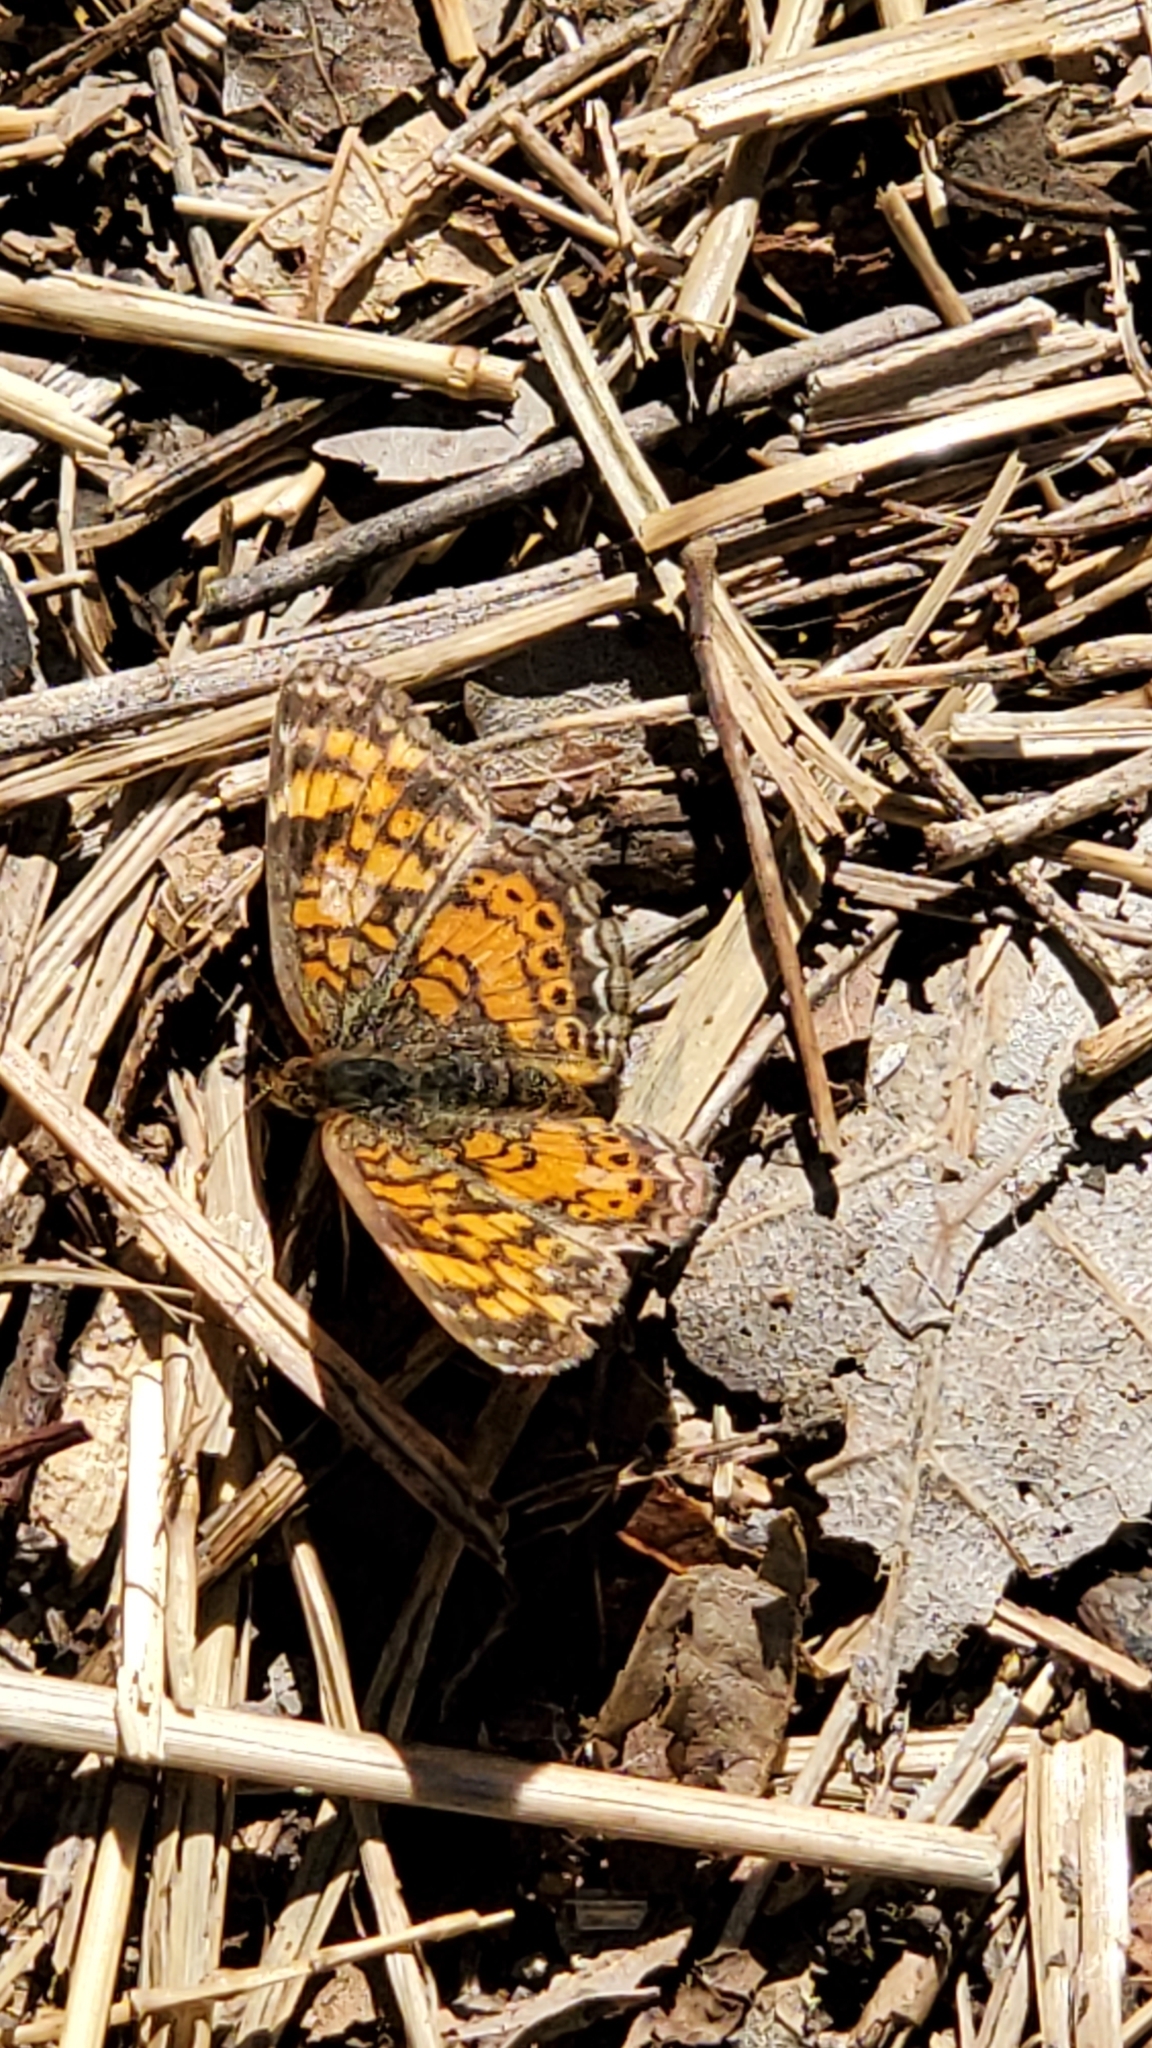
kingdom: Animalia
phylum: Arthropoda
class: Insecta
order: Lepidoptera
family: Nymphalidae
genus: Phyciodes
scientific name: Phyciodes tharos
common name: Pearl crescent
